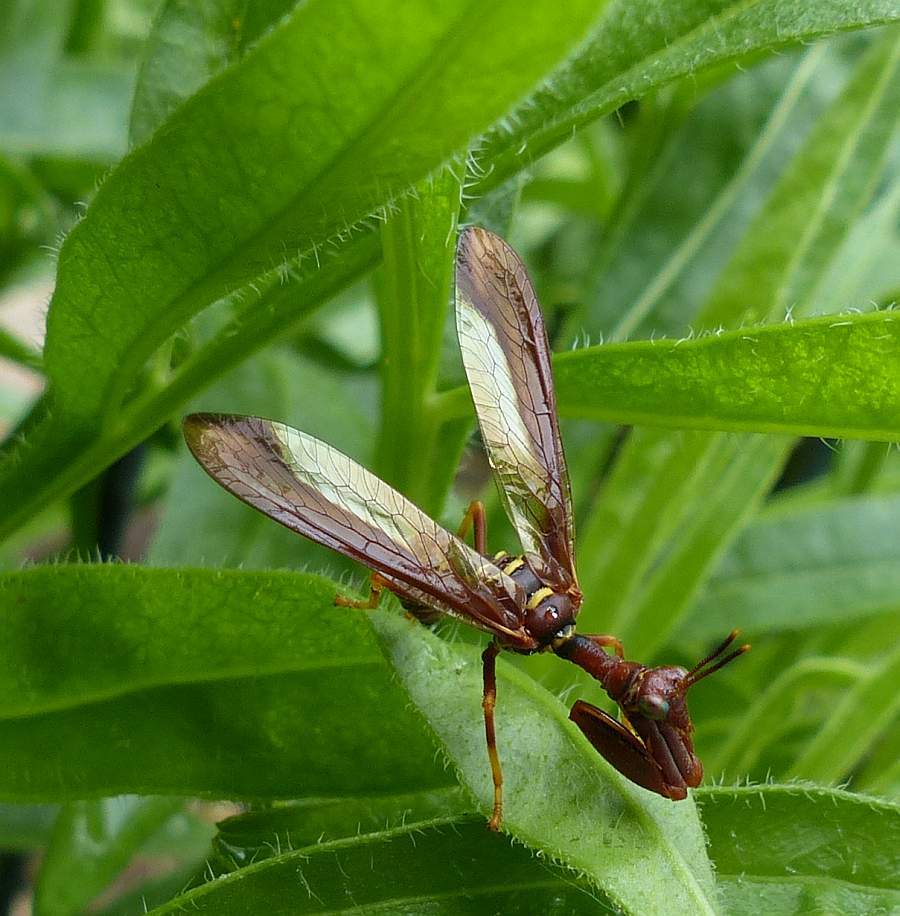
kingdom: Animalia
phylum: Arthropoda
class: Insecta
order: Neuroptera
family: Mantispidae
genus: Climaciella
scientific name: Climaciella brunnea
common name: Brown wasp mantidfly
